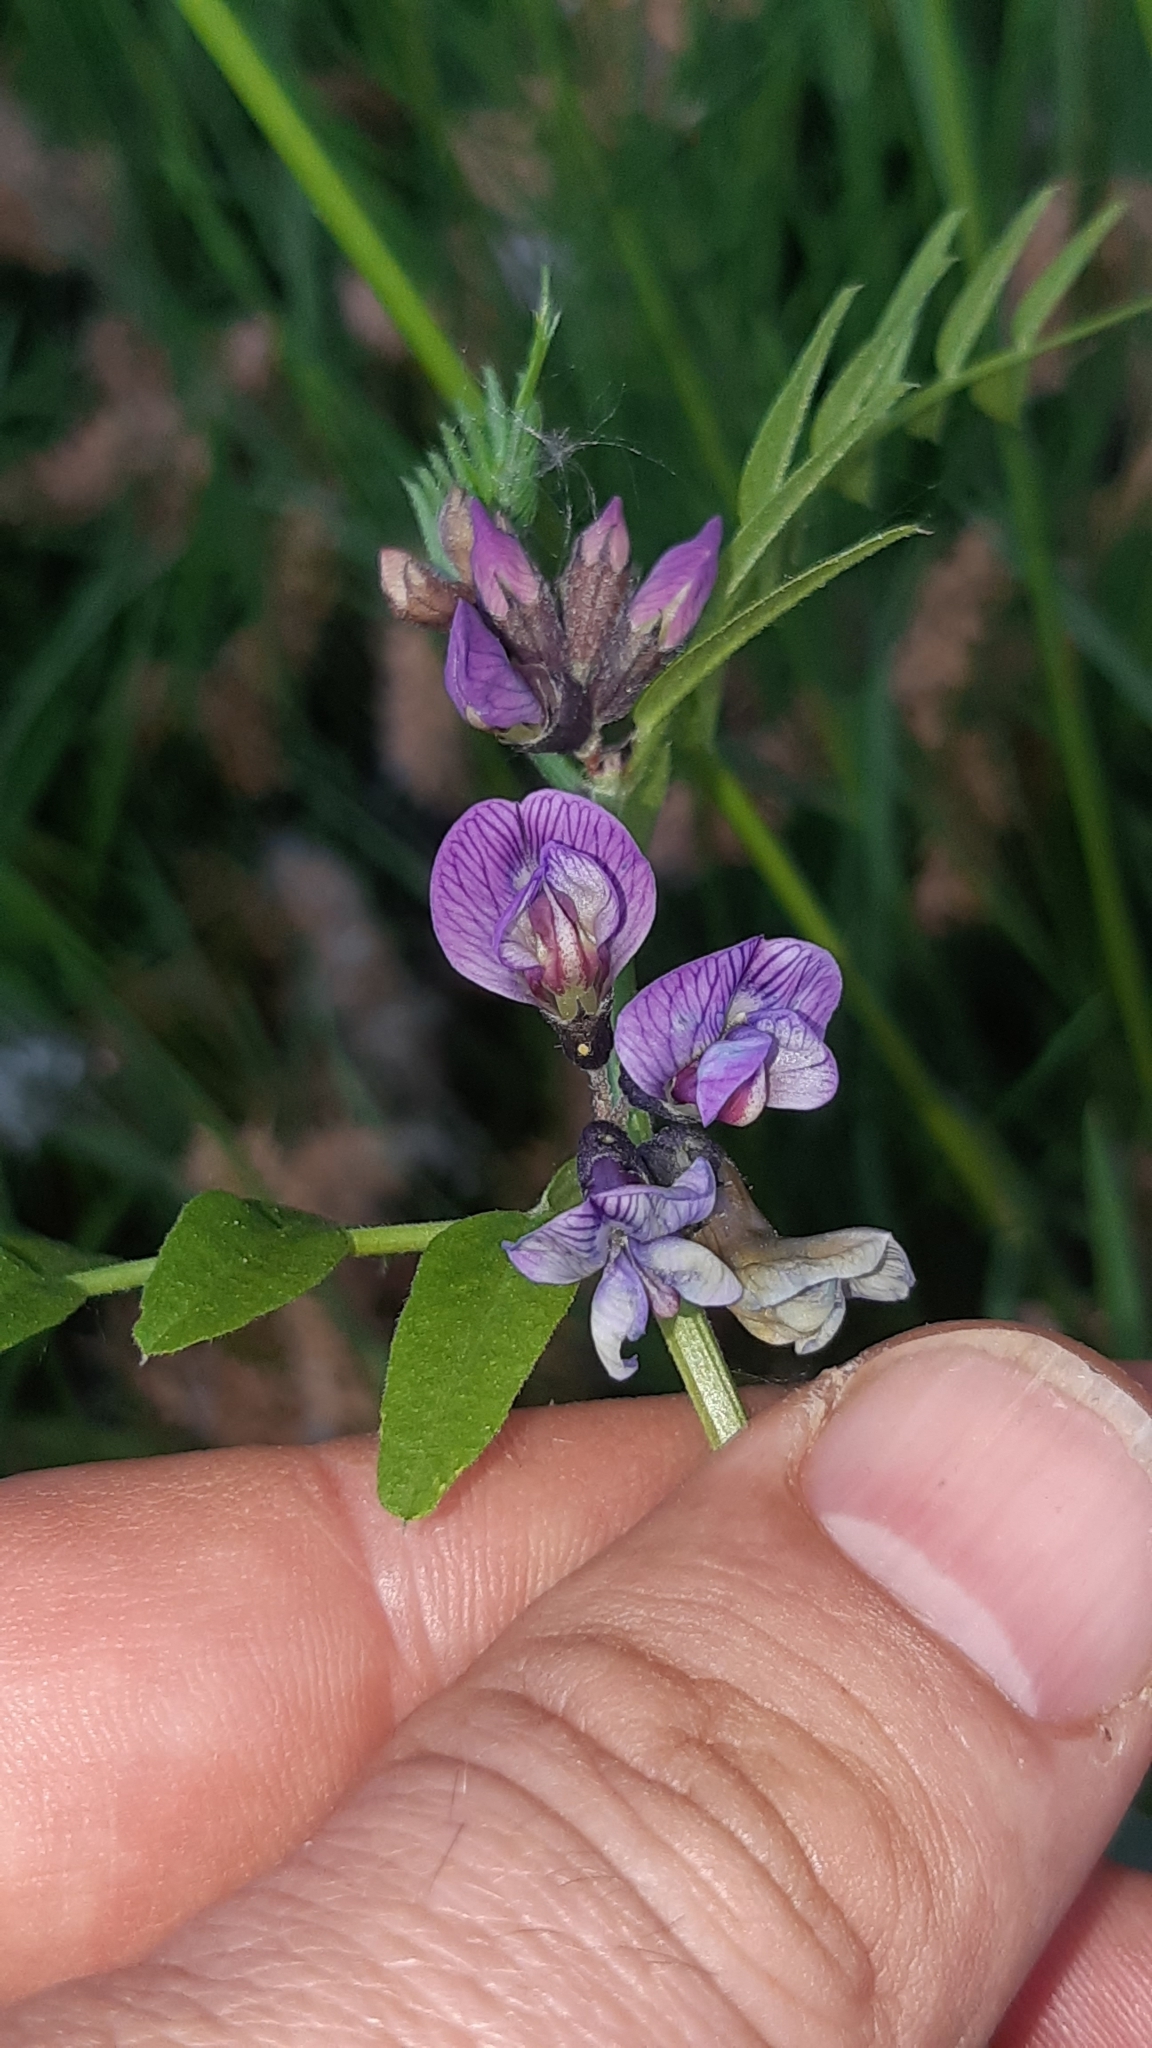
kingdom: Plantae
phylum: Tracheophyta
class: Magnoliopsida
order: Fabales
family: Fabaceae
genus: Vicia
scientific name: Vicia sepium
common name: Bush vetch
